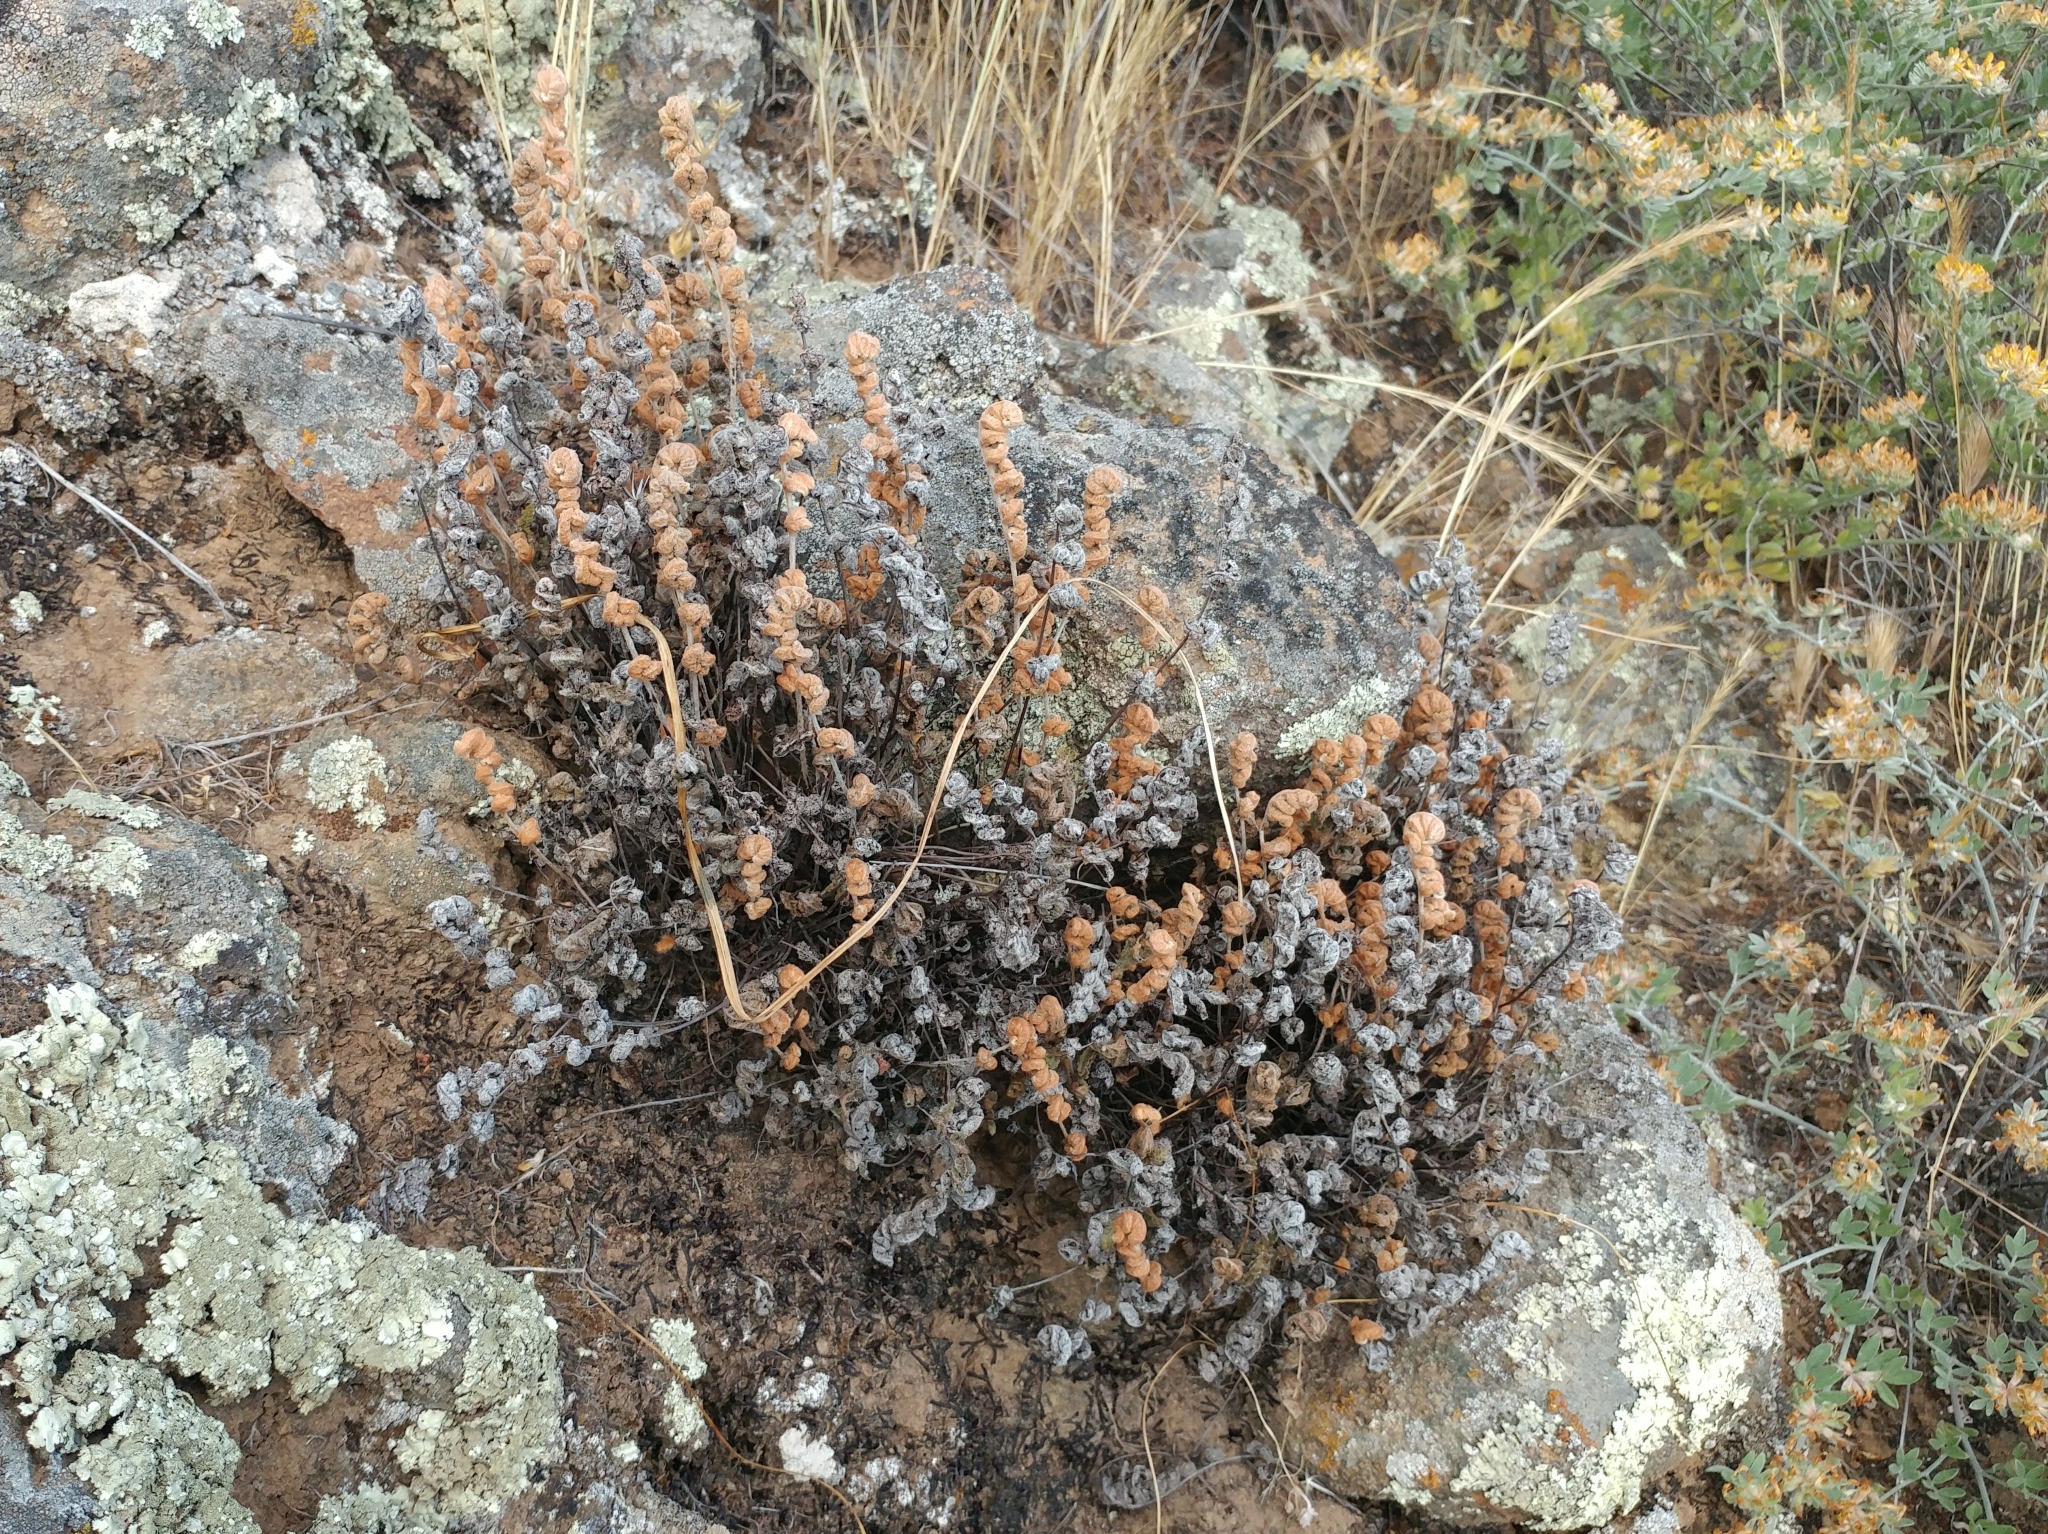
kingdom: Plantae
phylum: Tracheophyta
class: Polypodiopsida
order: Polypodiales
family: Pteridaceae
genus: Myriopteris
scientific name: Myriopteris newberryi
